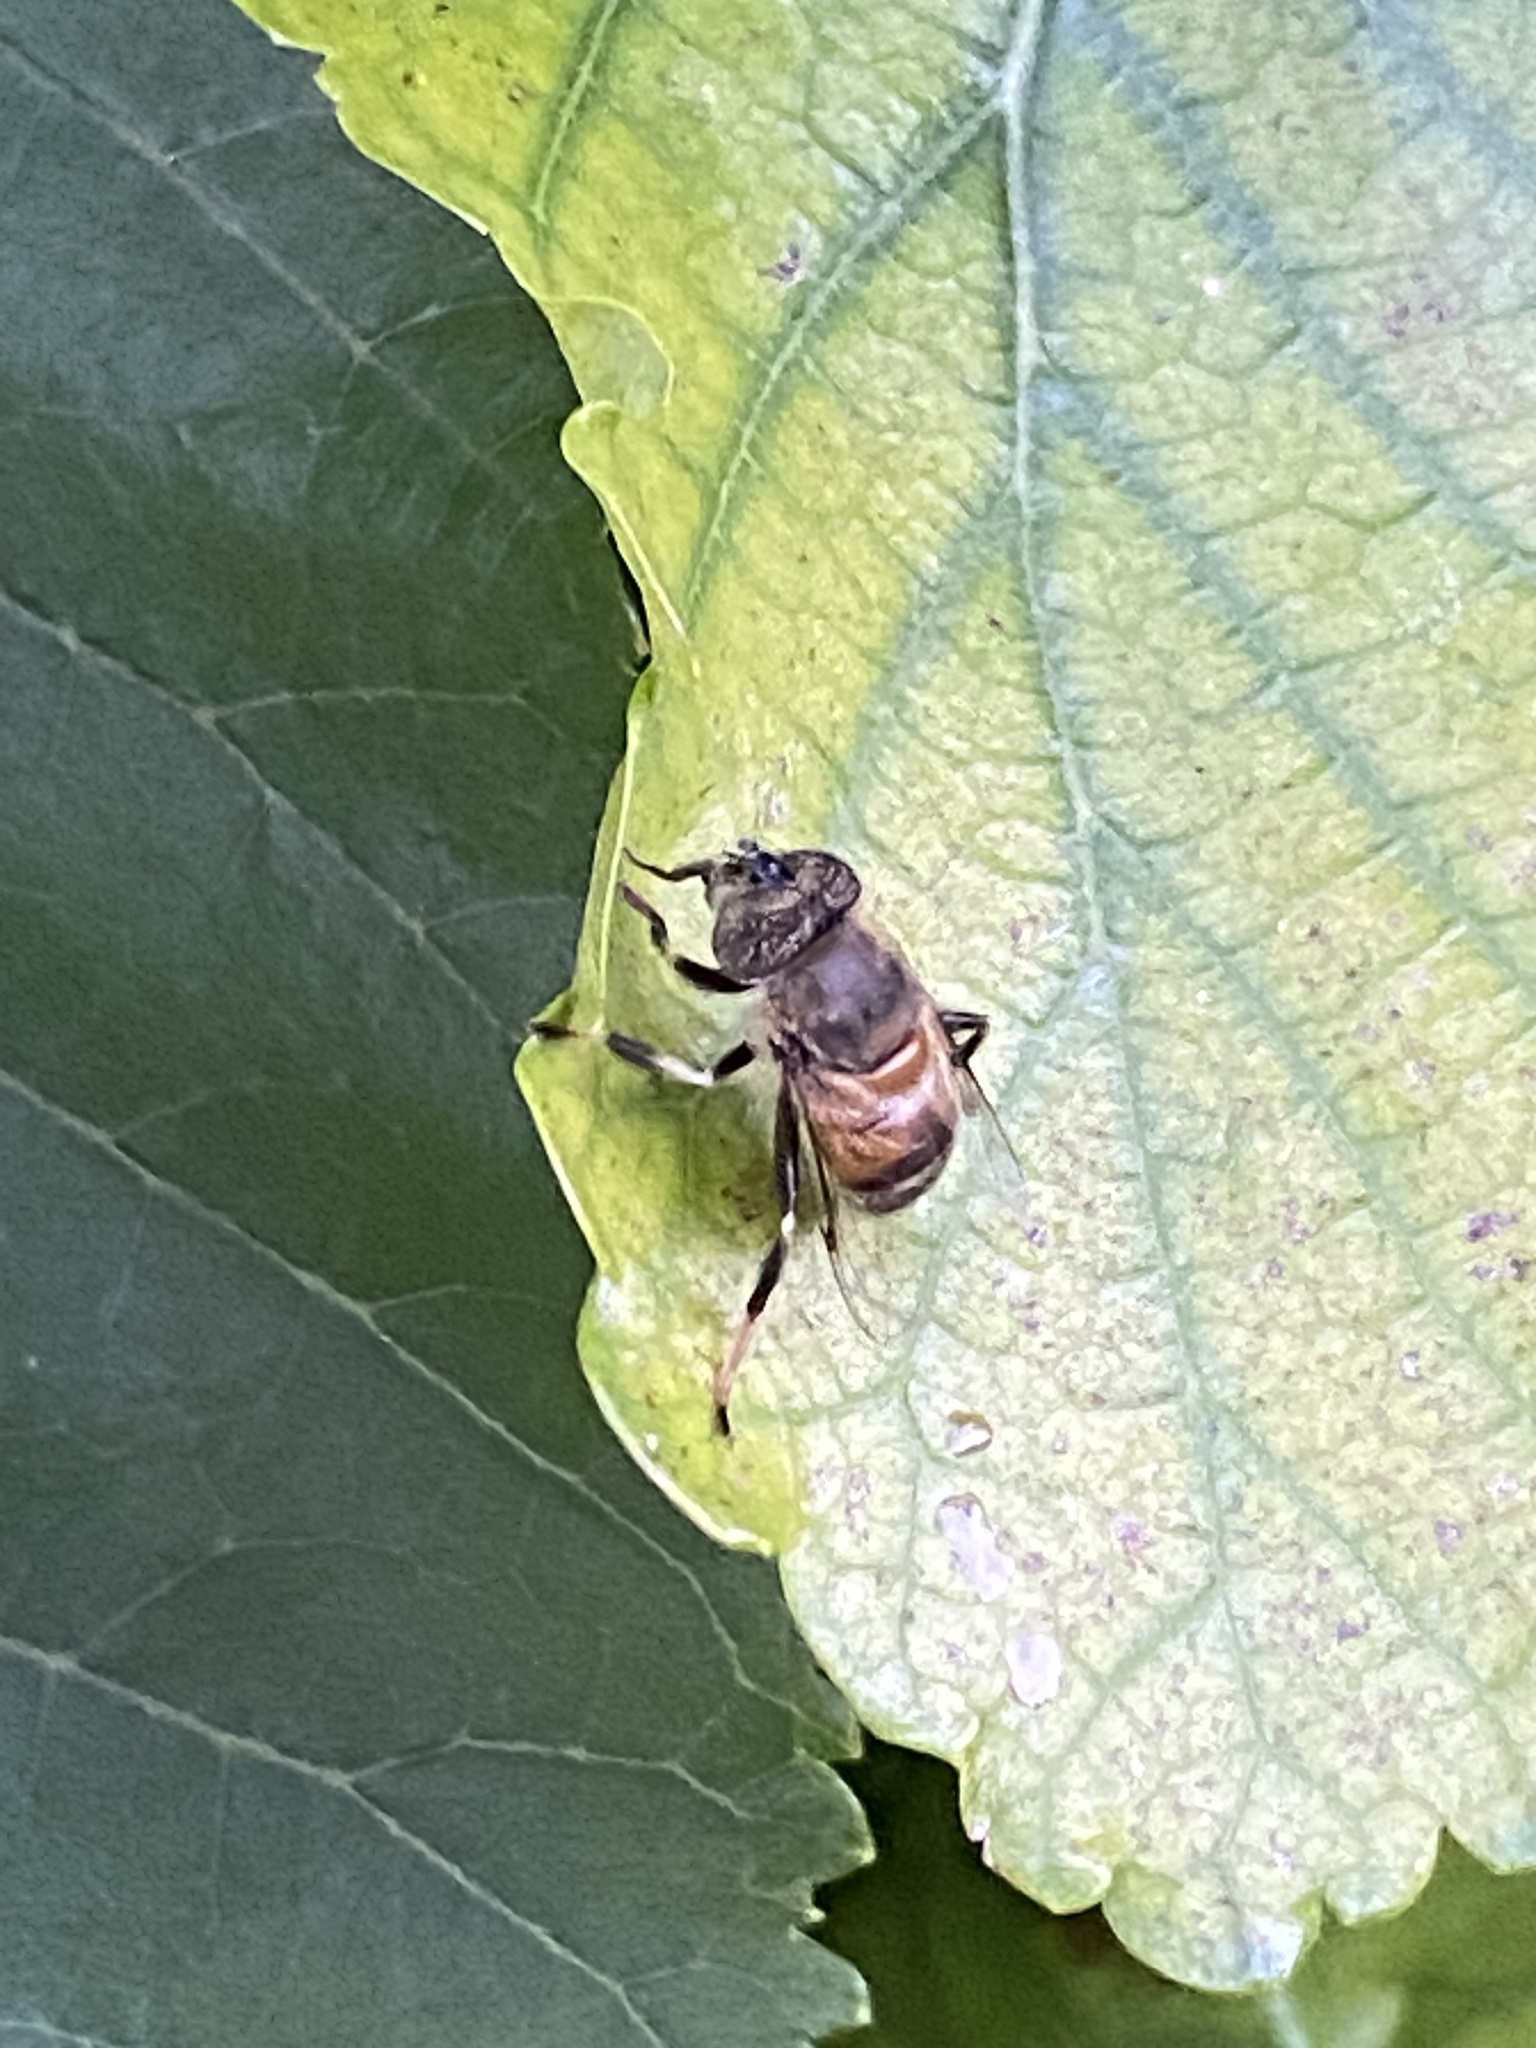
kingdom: Animalia
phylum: Arthropoda
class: Insecta
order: Diptera
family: Syrphidae
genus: Eristalinus
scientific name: Eristalinus haplops
